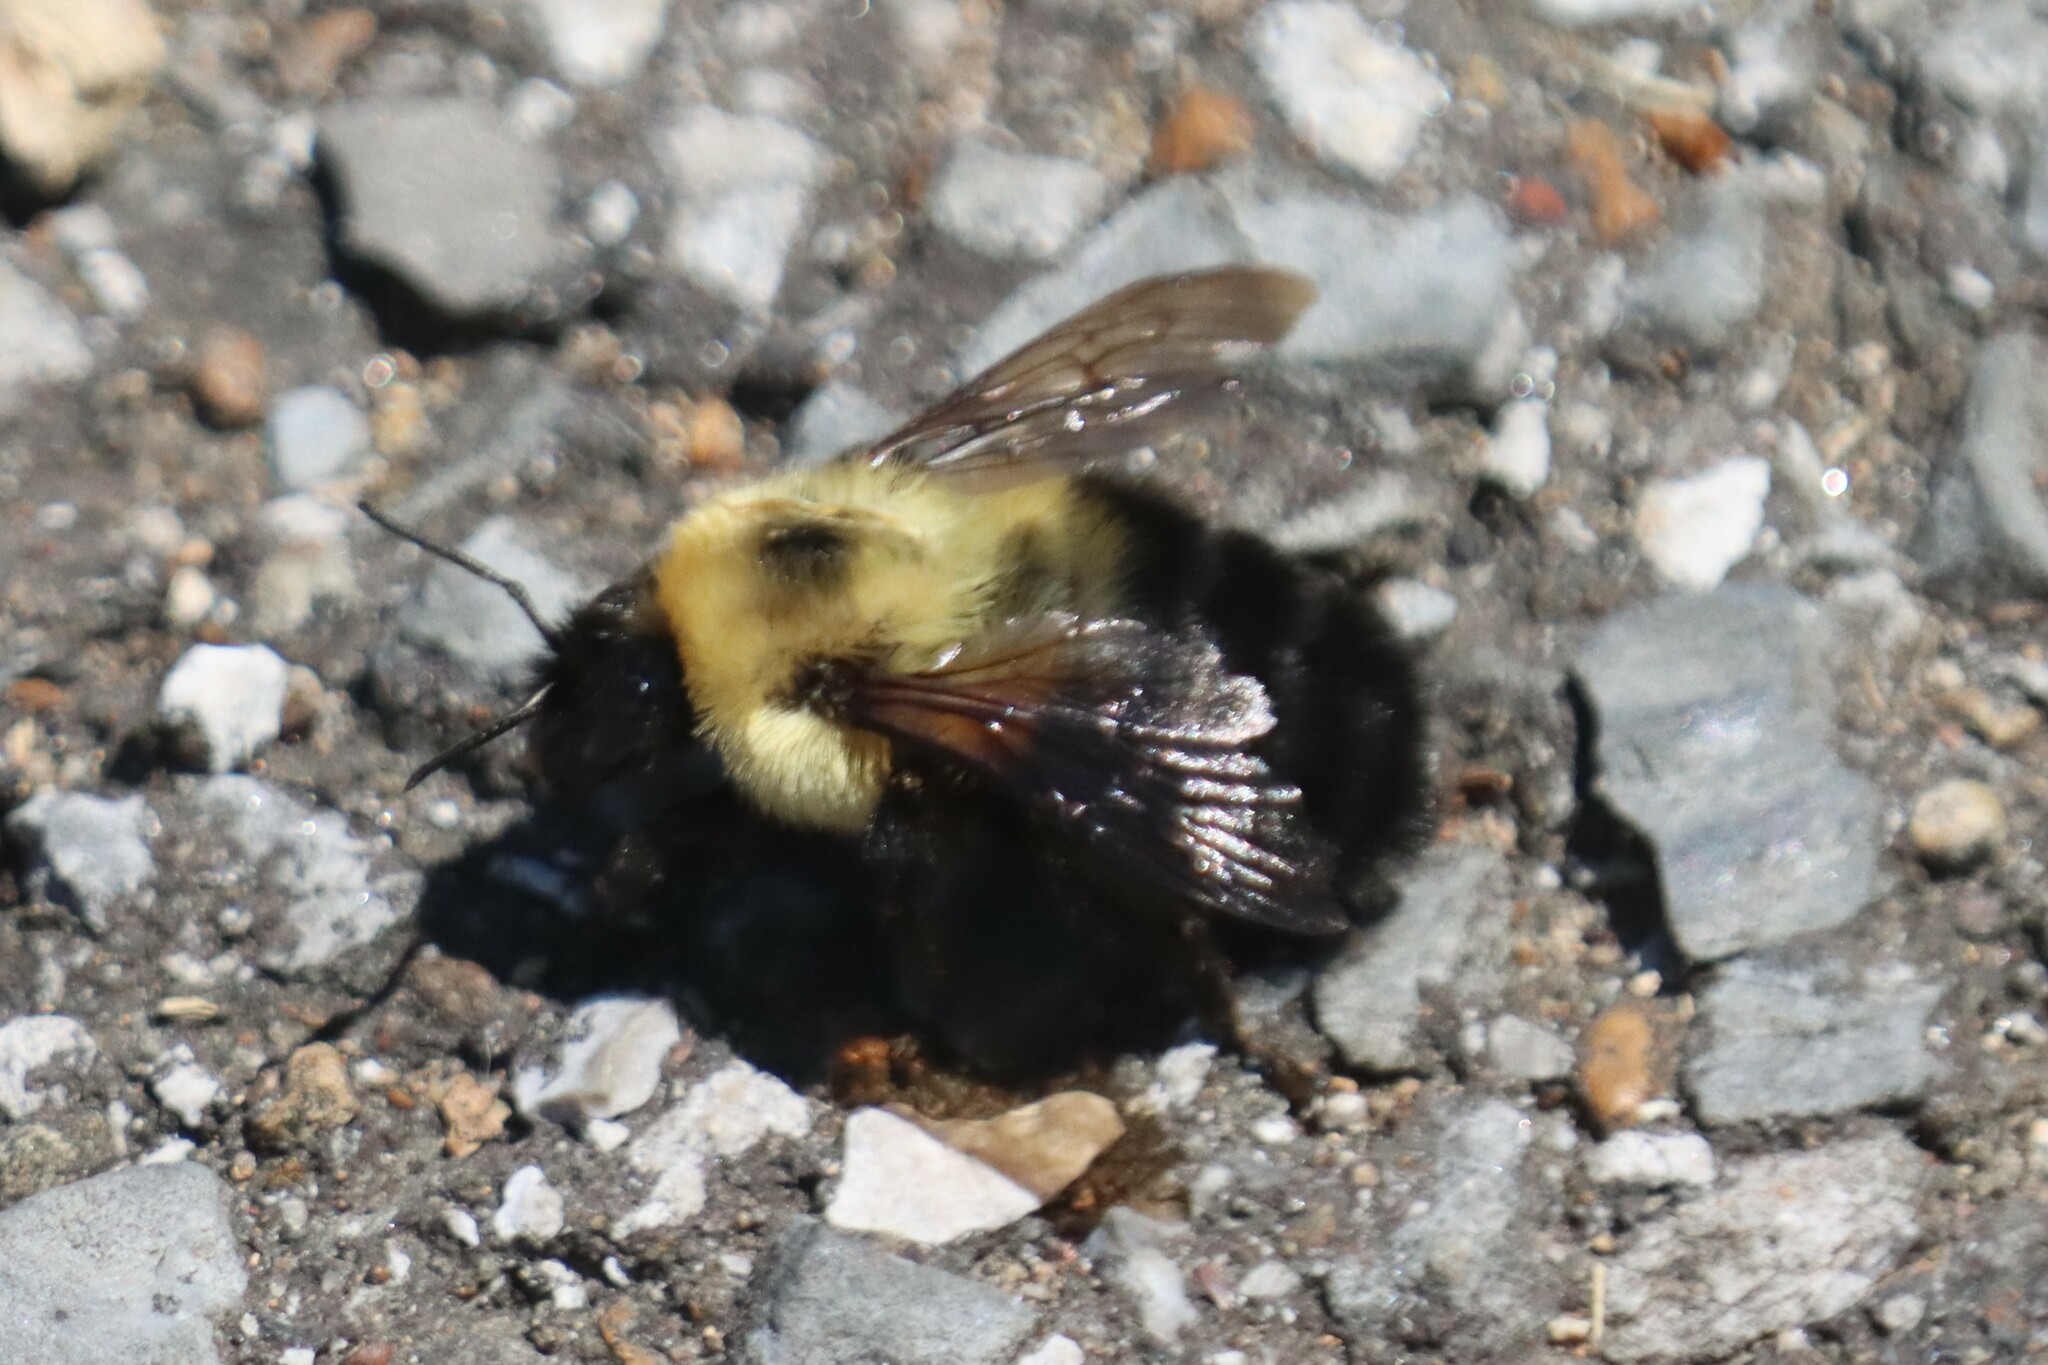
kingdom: Animalia
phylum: Arthropoda
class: Insecta
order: Hymenoptera
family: Apidae
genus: Bombus
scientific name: Bombus bimaculatus
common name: Two-spotted bumble bee
